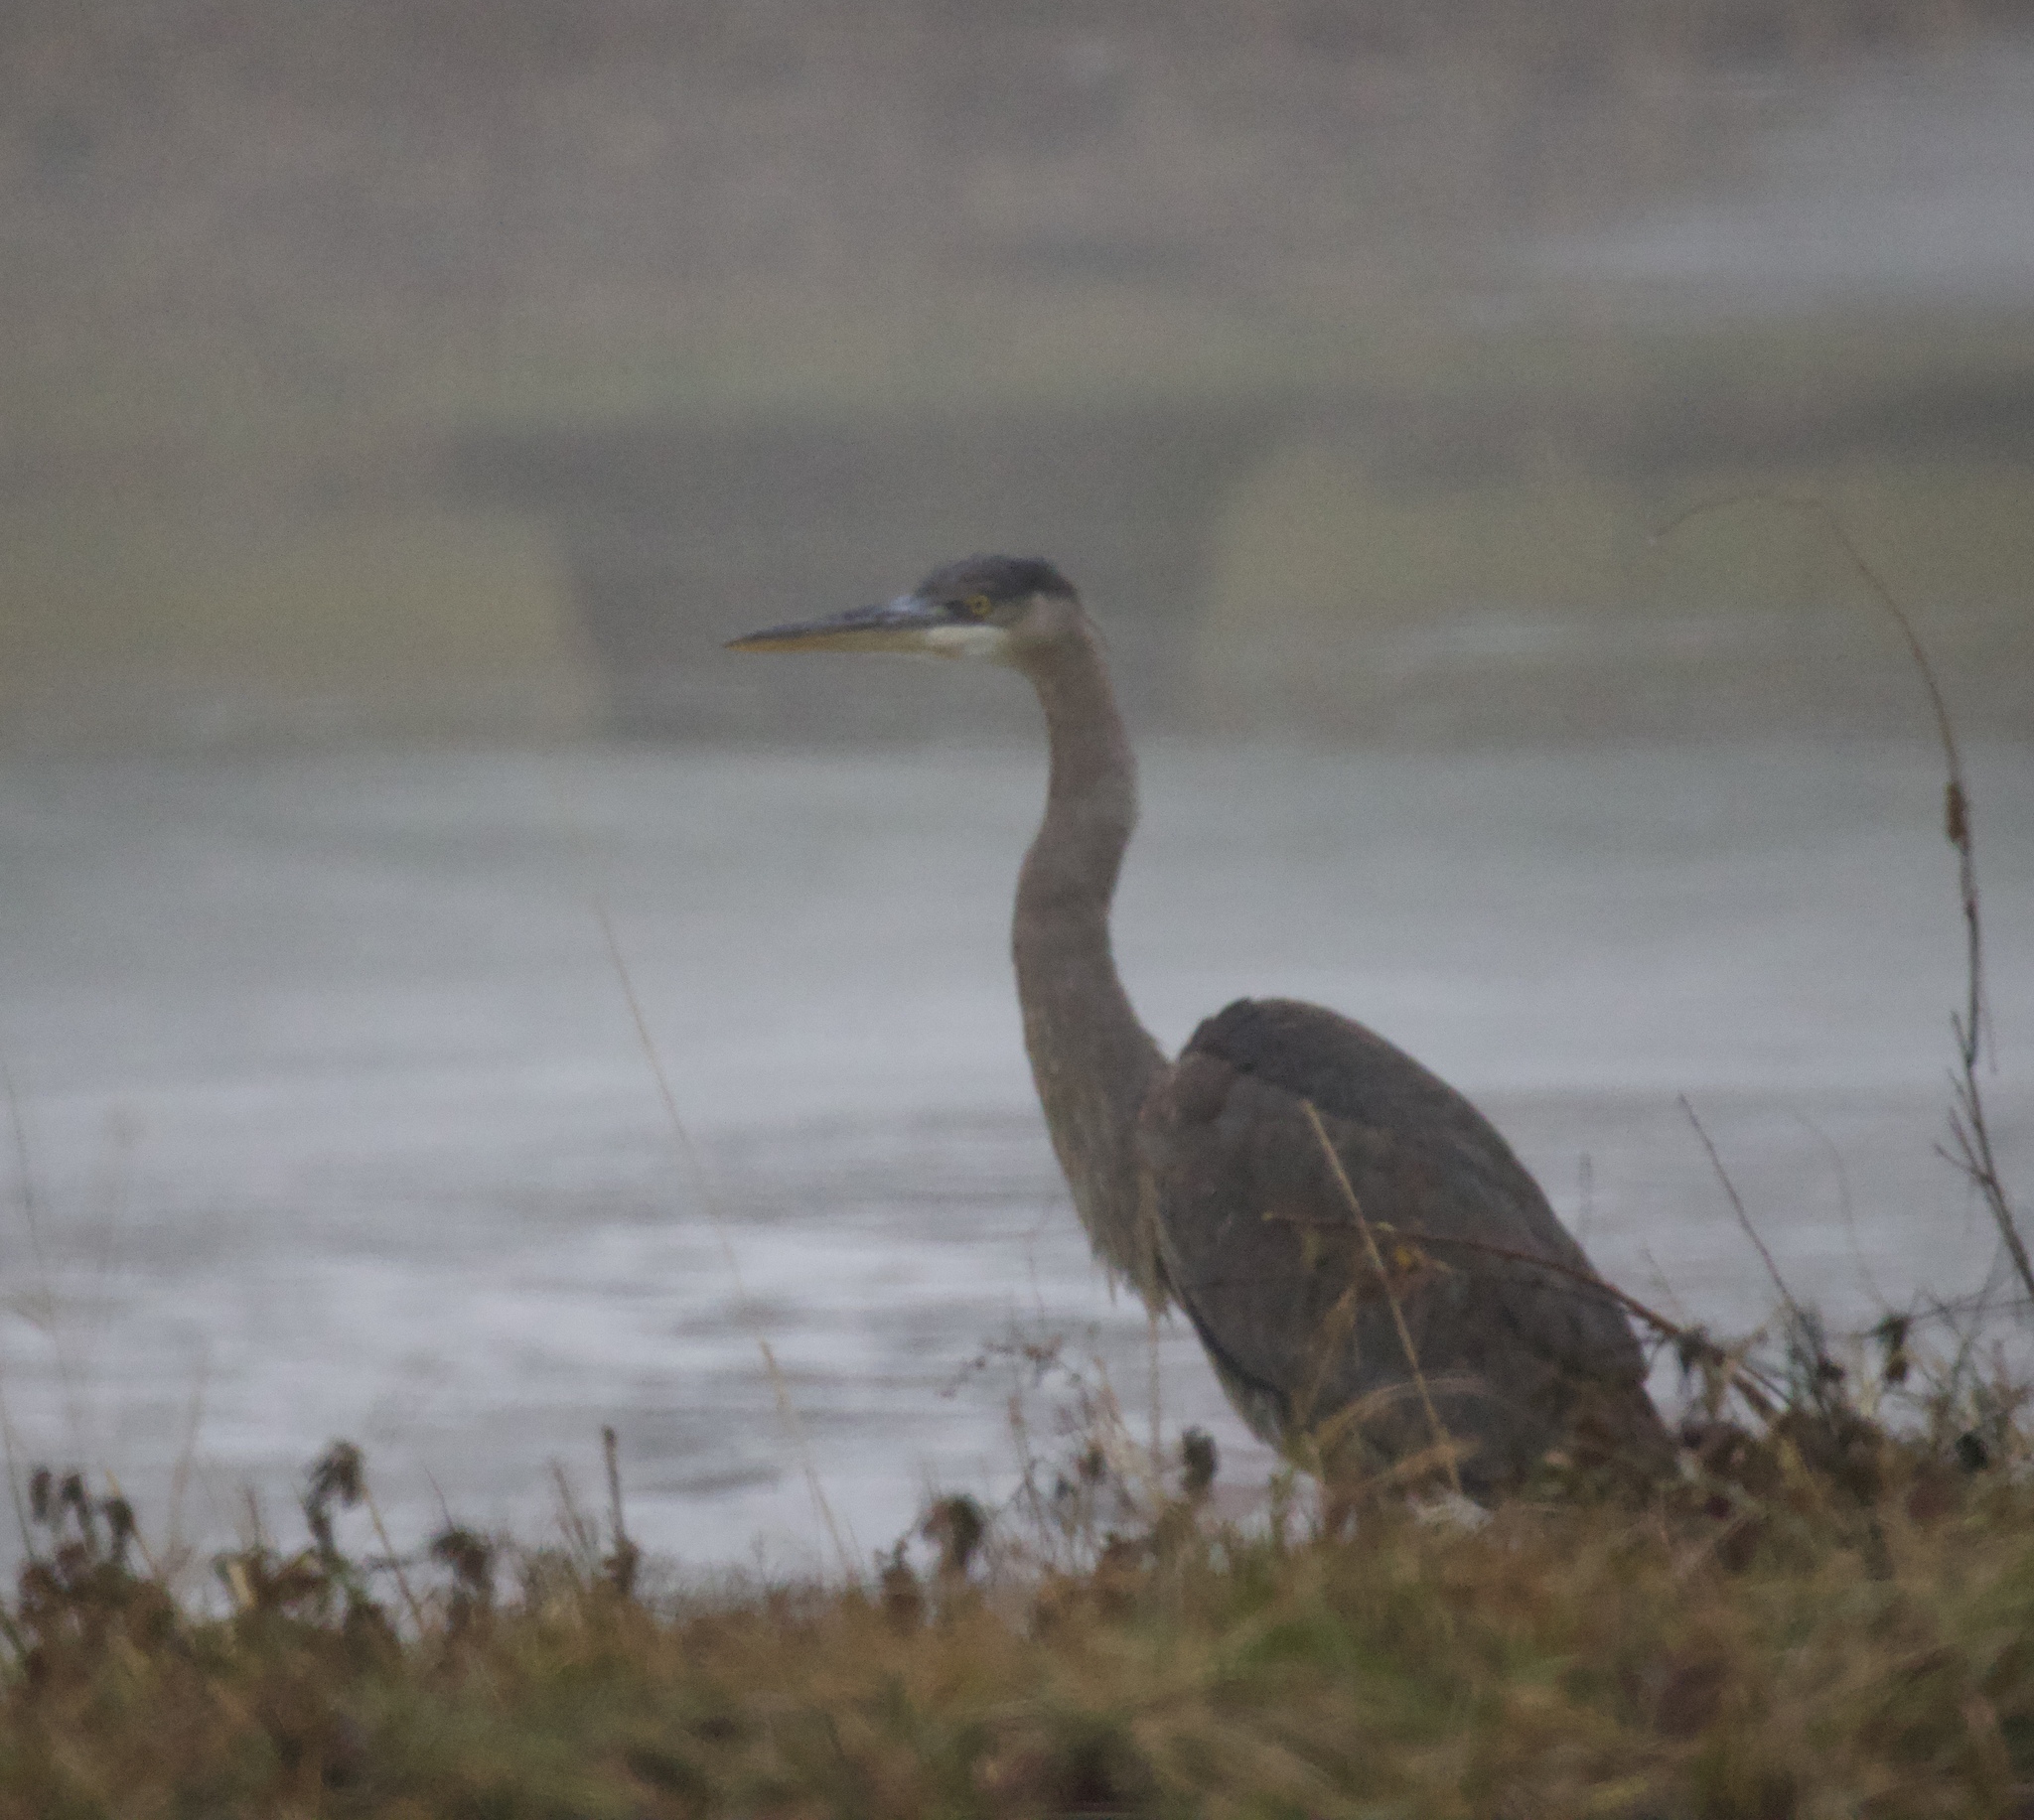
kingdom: Animalia
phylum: Chordata
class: Aves
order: Pelecaniformes
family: Ardeidae
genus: Ardea
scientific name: Ardea herodias
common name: Great blue heron
